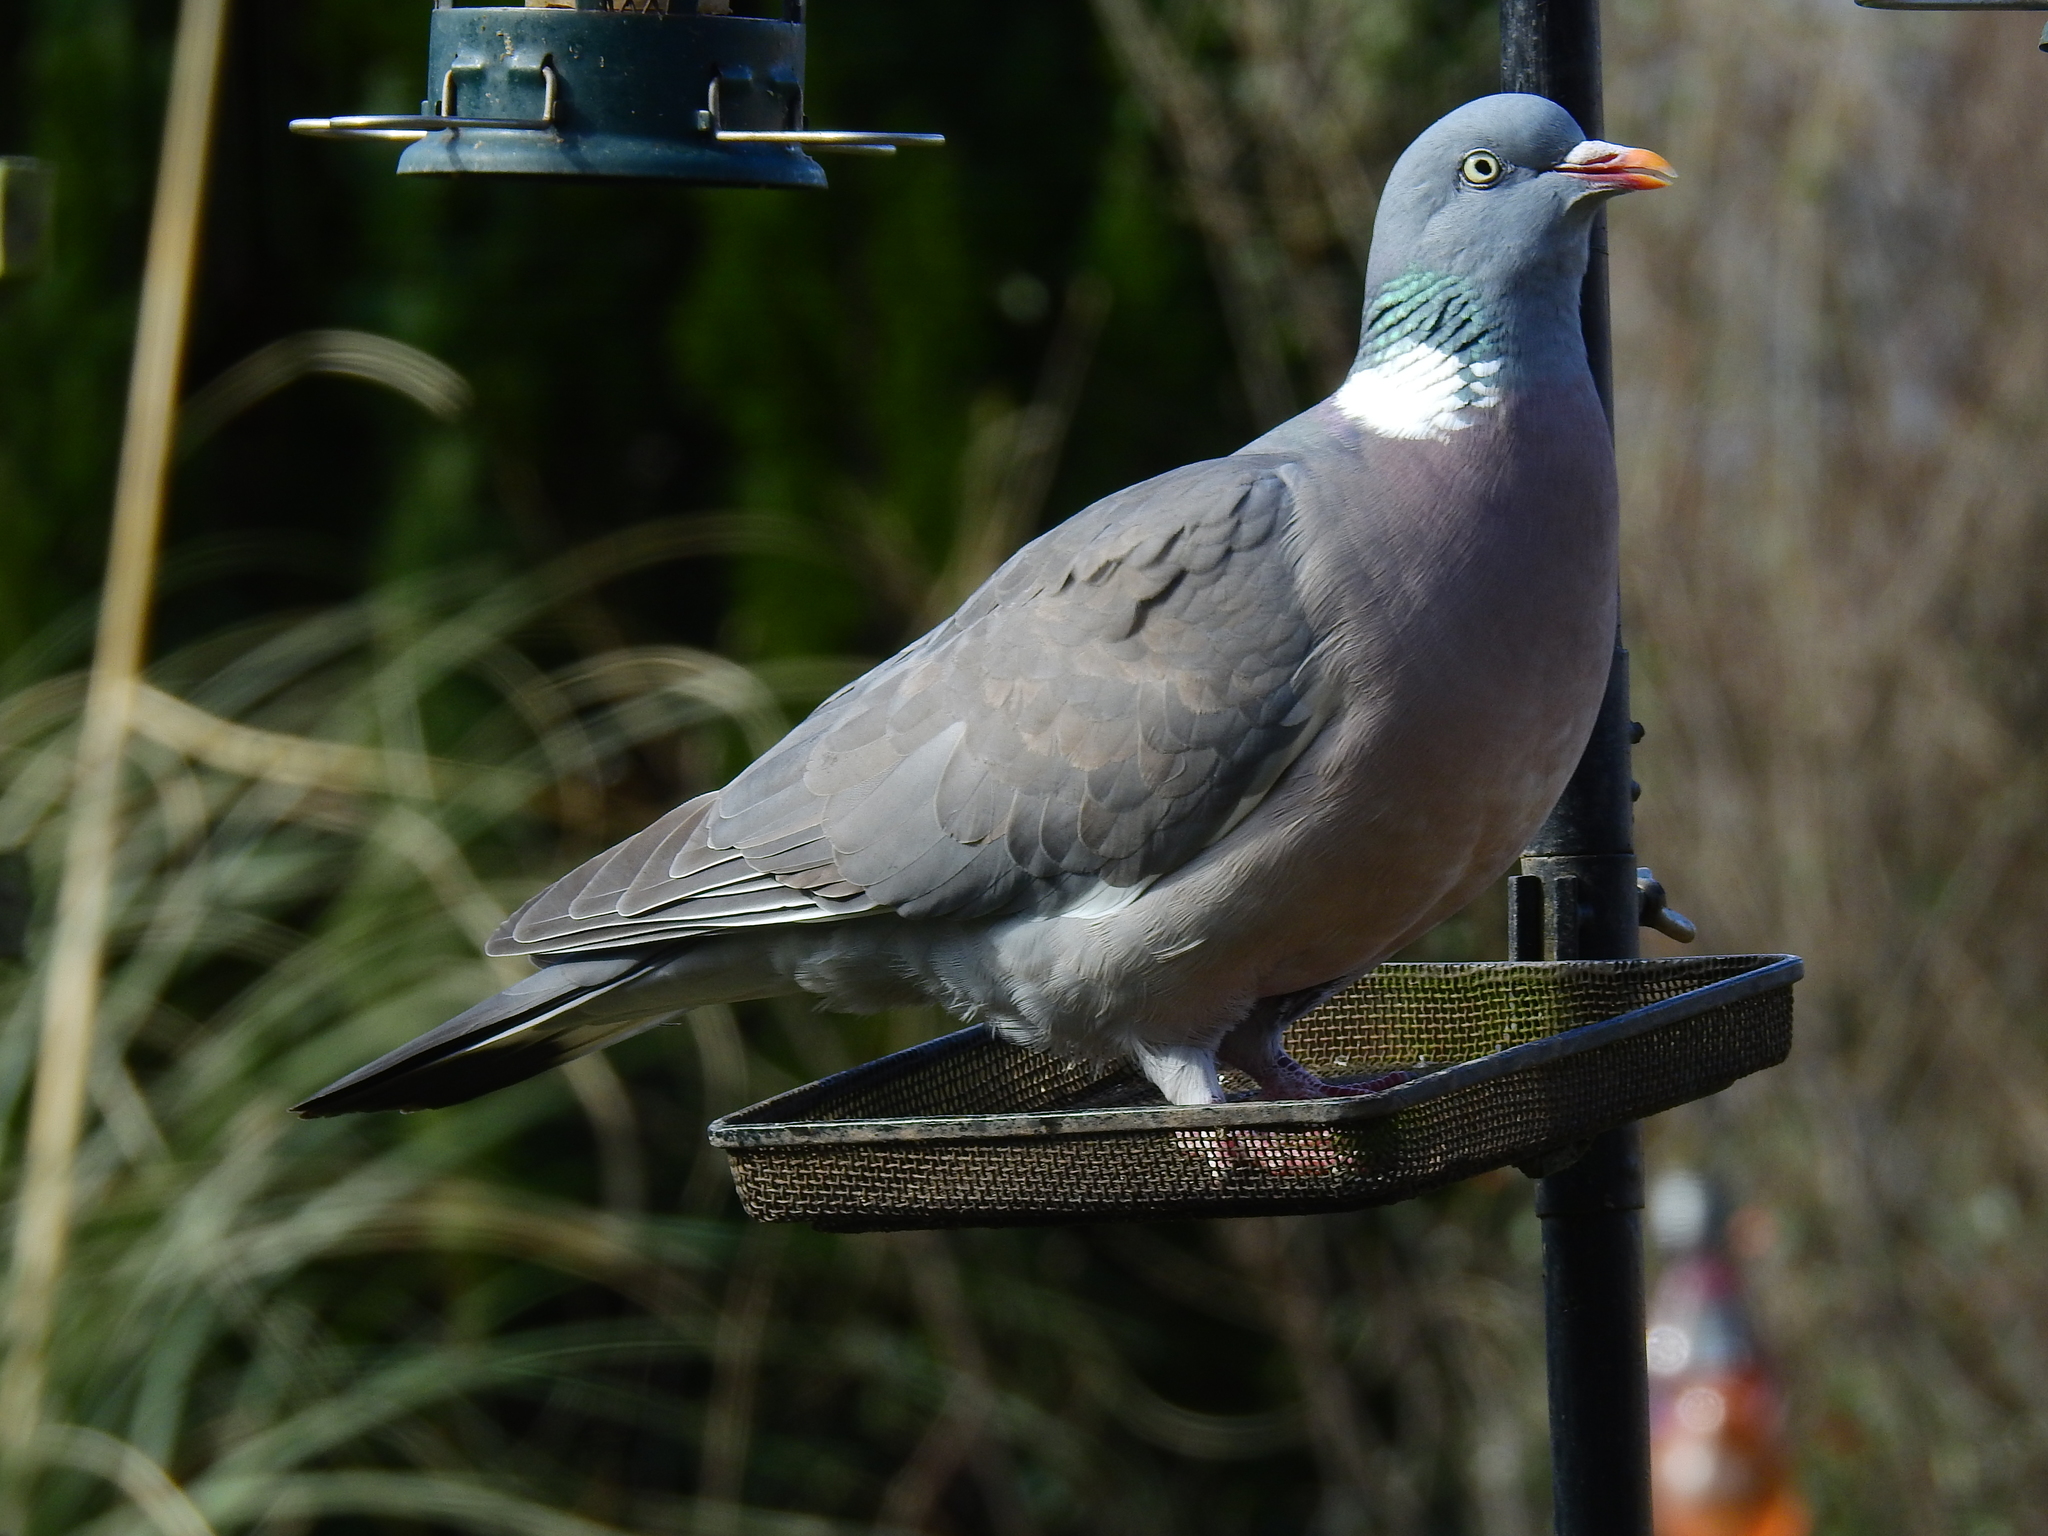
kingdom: Animalia
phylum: Chordata
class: Aves
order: Columbiformes
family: Columbidae
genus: Columba
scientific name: Columba palumbus
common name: Common wood pigeon
